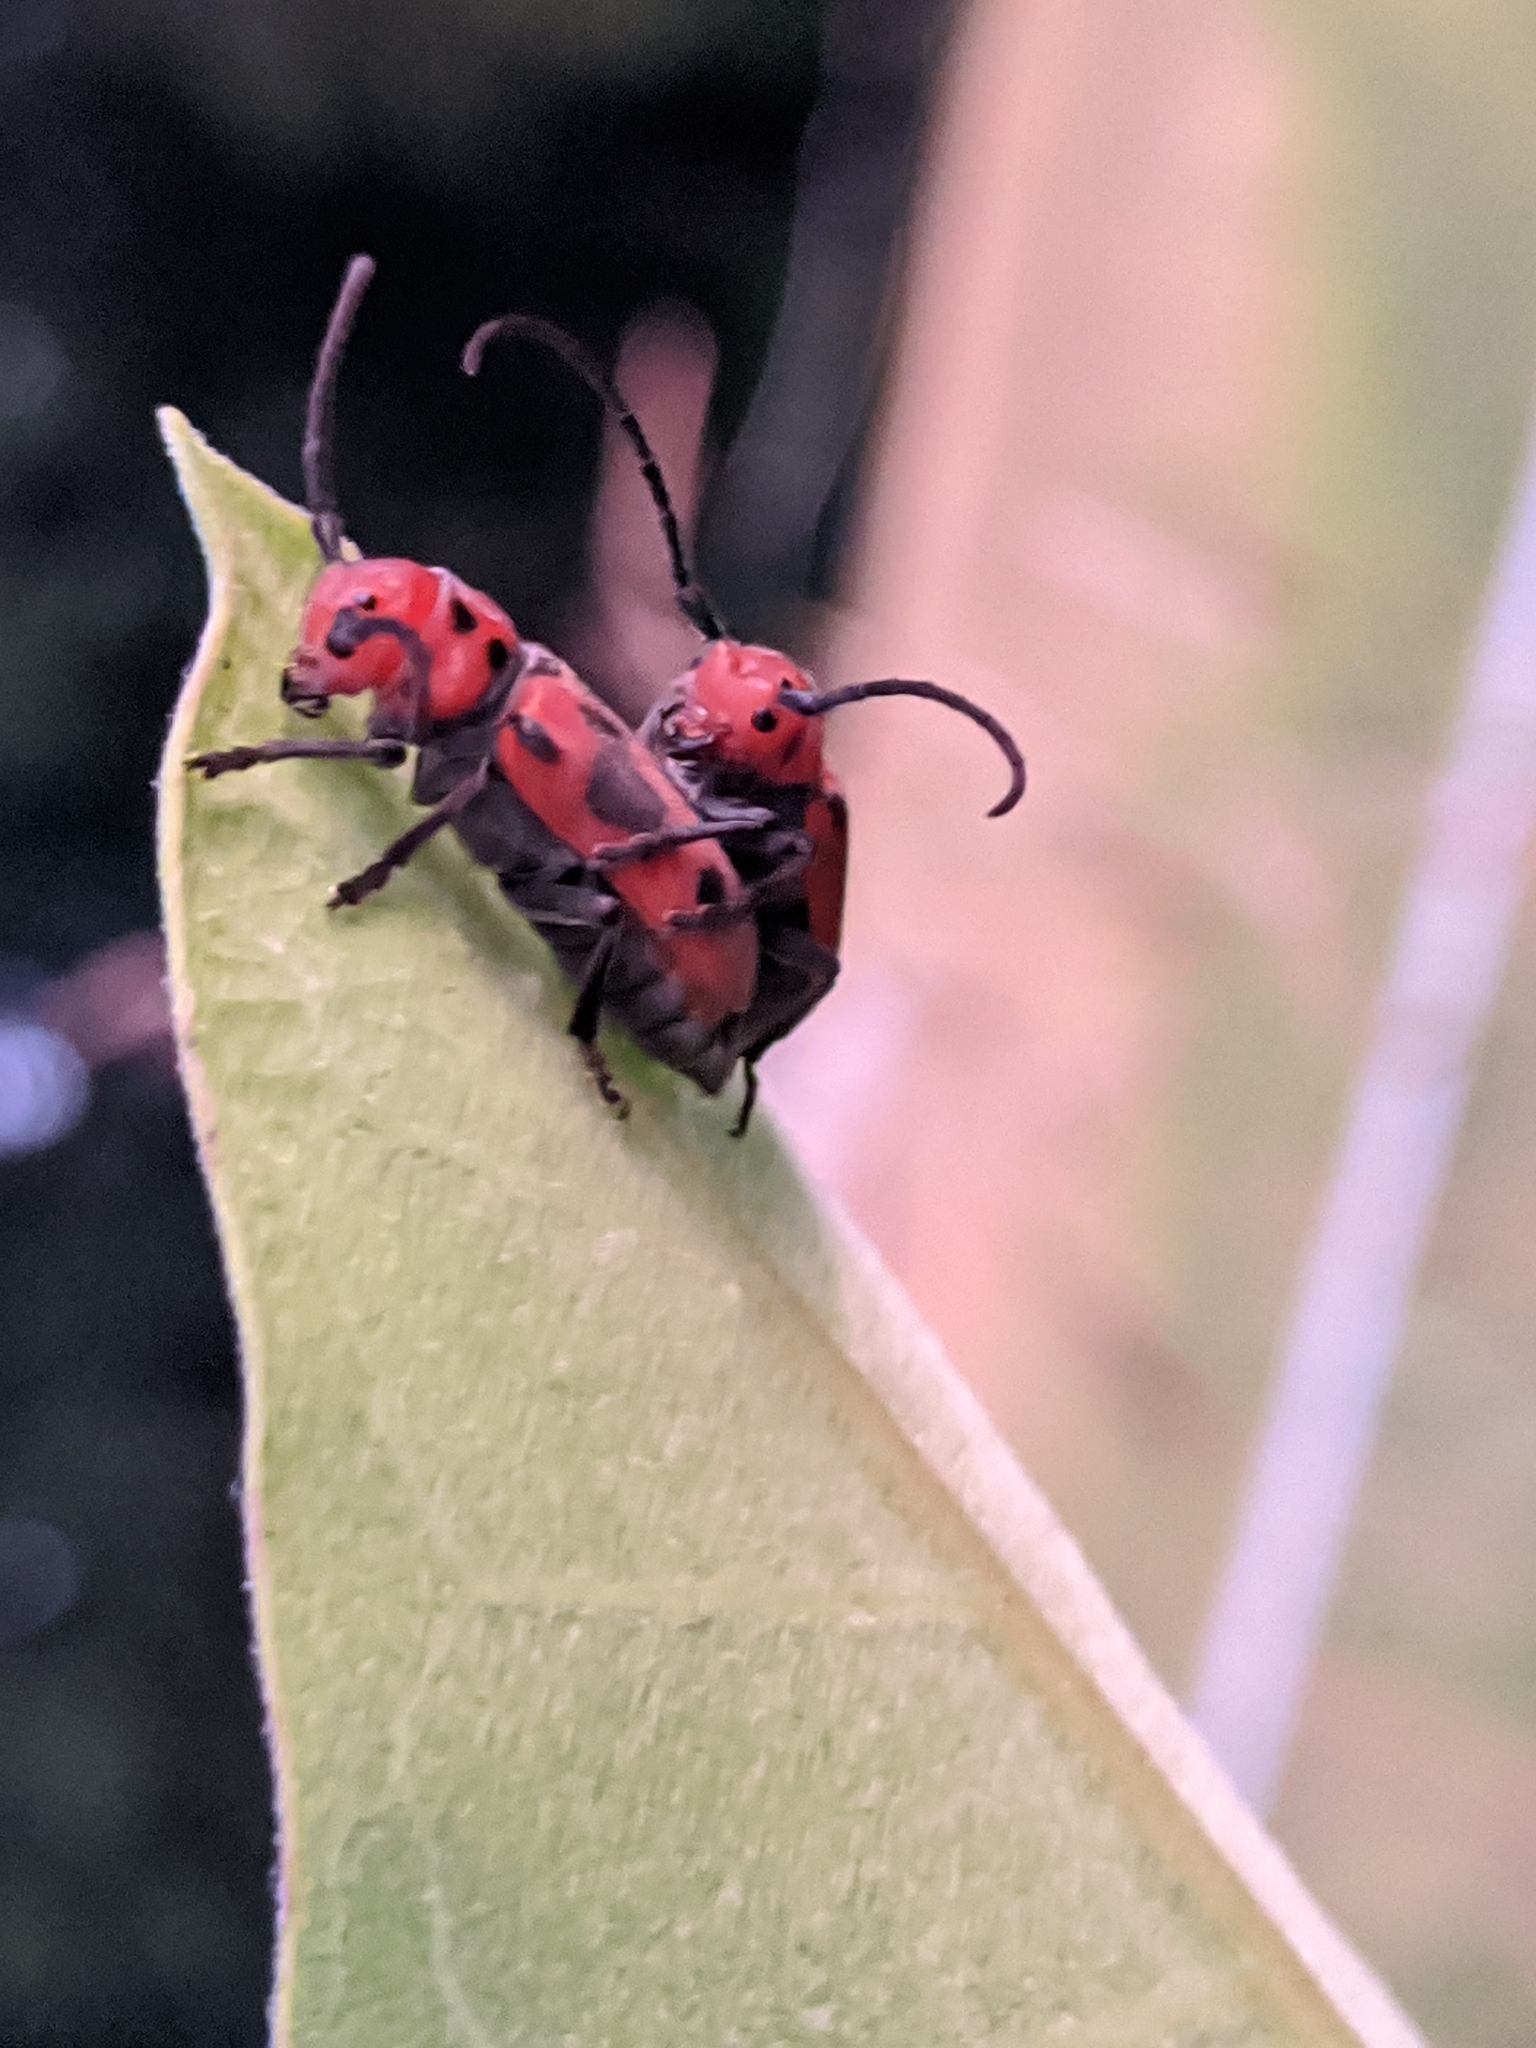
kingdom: Animalia
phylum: Arthropoda
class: Insecta
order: Coleoptera
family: Cerambycidae
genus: Tetraopes
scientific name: Tetraopes tetrophthalmus
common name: Red milkweed beetle
